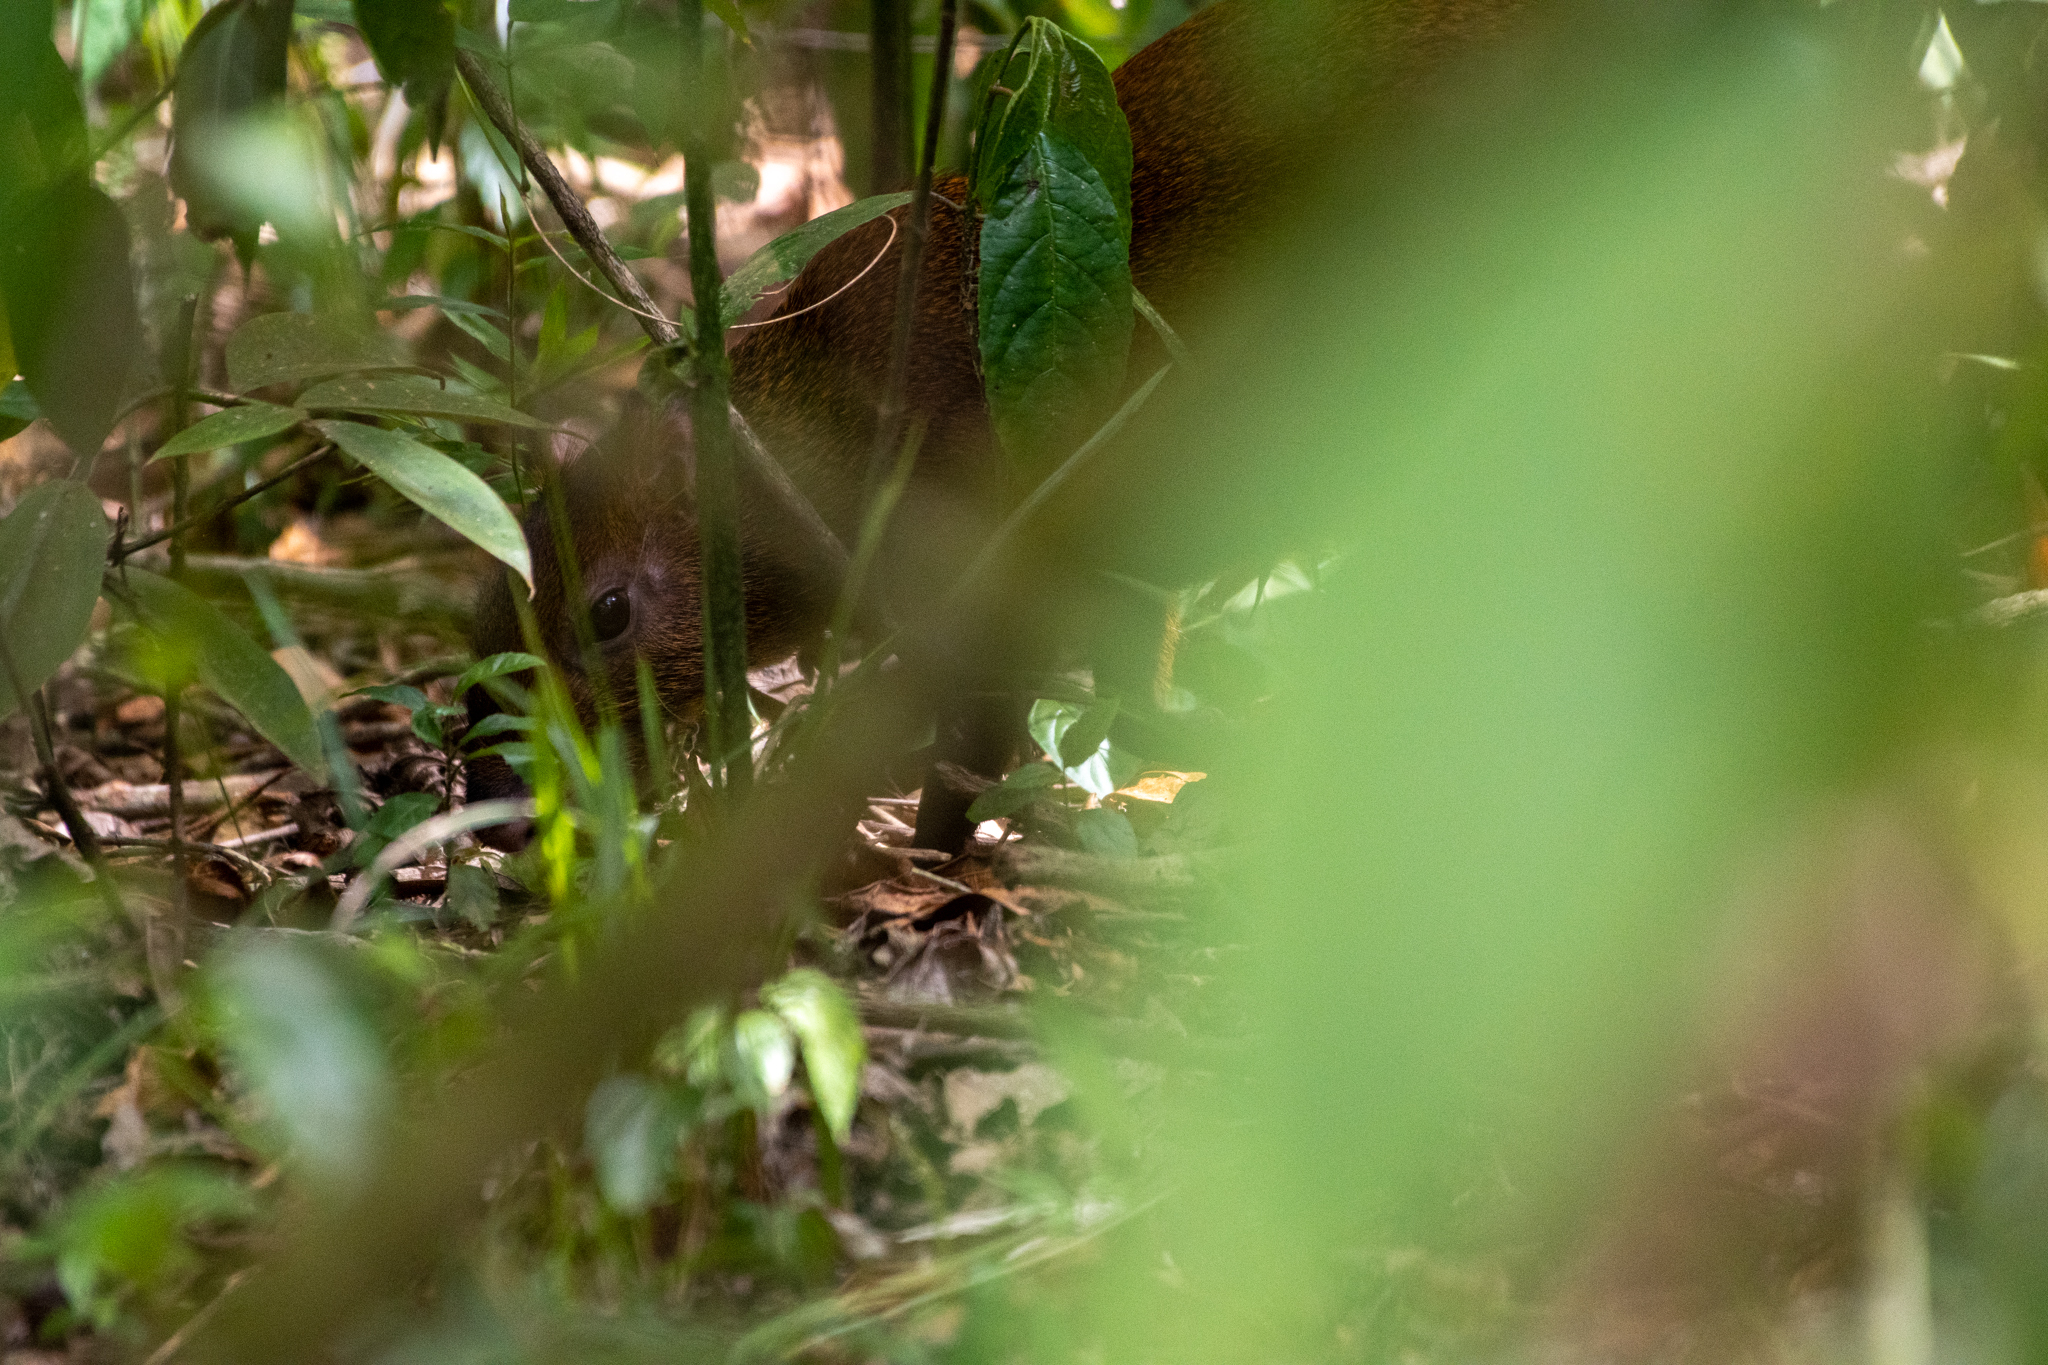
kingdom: Animalia
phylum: Chordata
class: Mammalia
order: Rodentia
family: Dasyproctidae
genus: Dasyprocta
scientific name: Dasyprocta punctata
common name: Central american agouti
